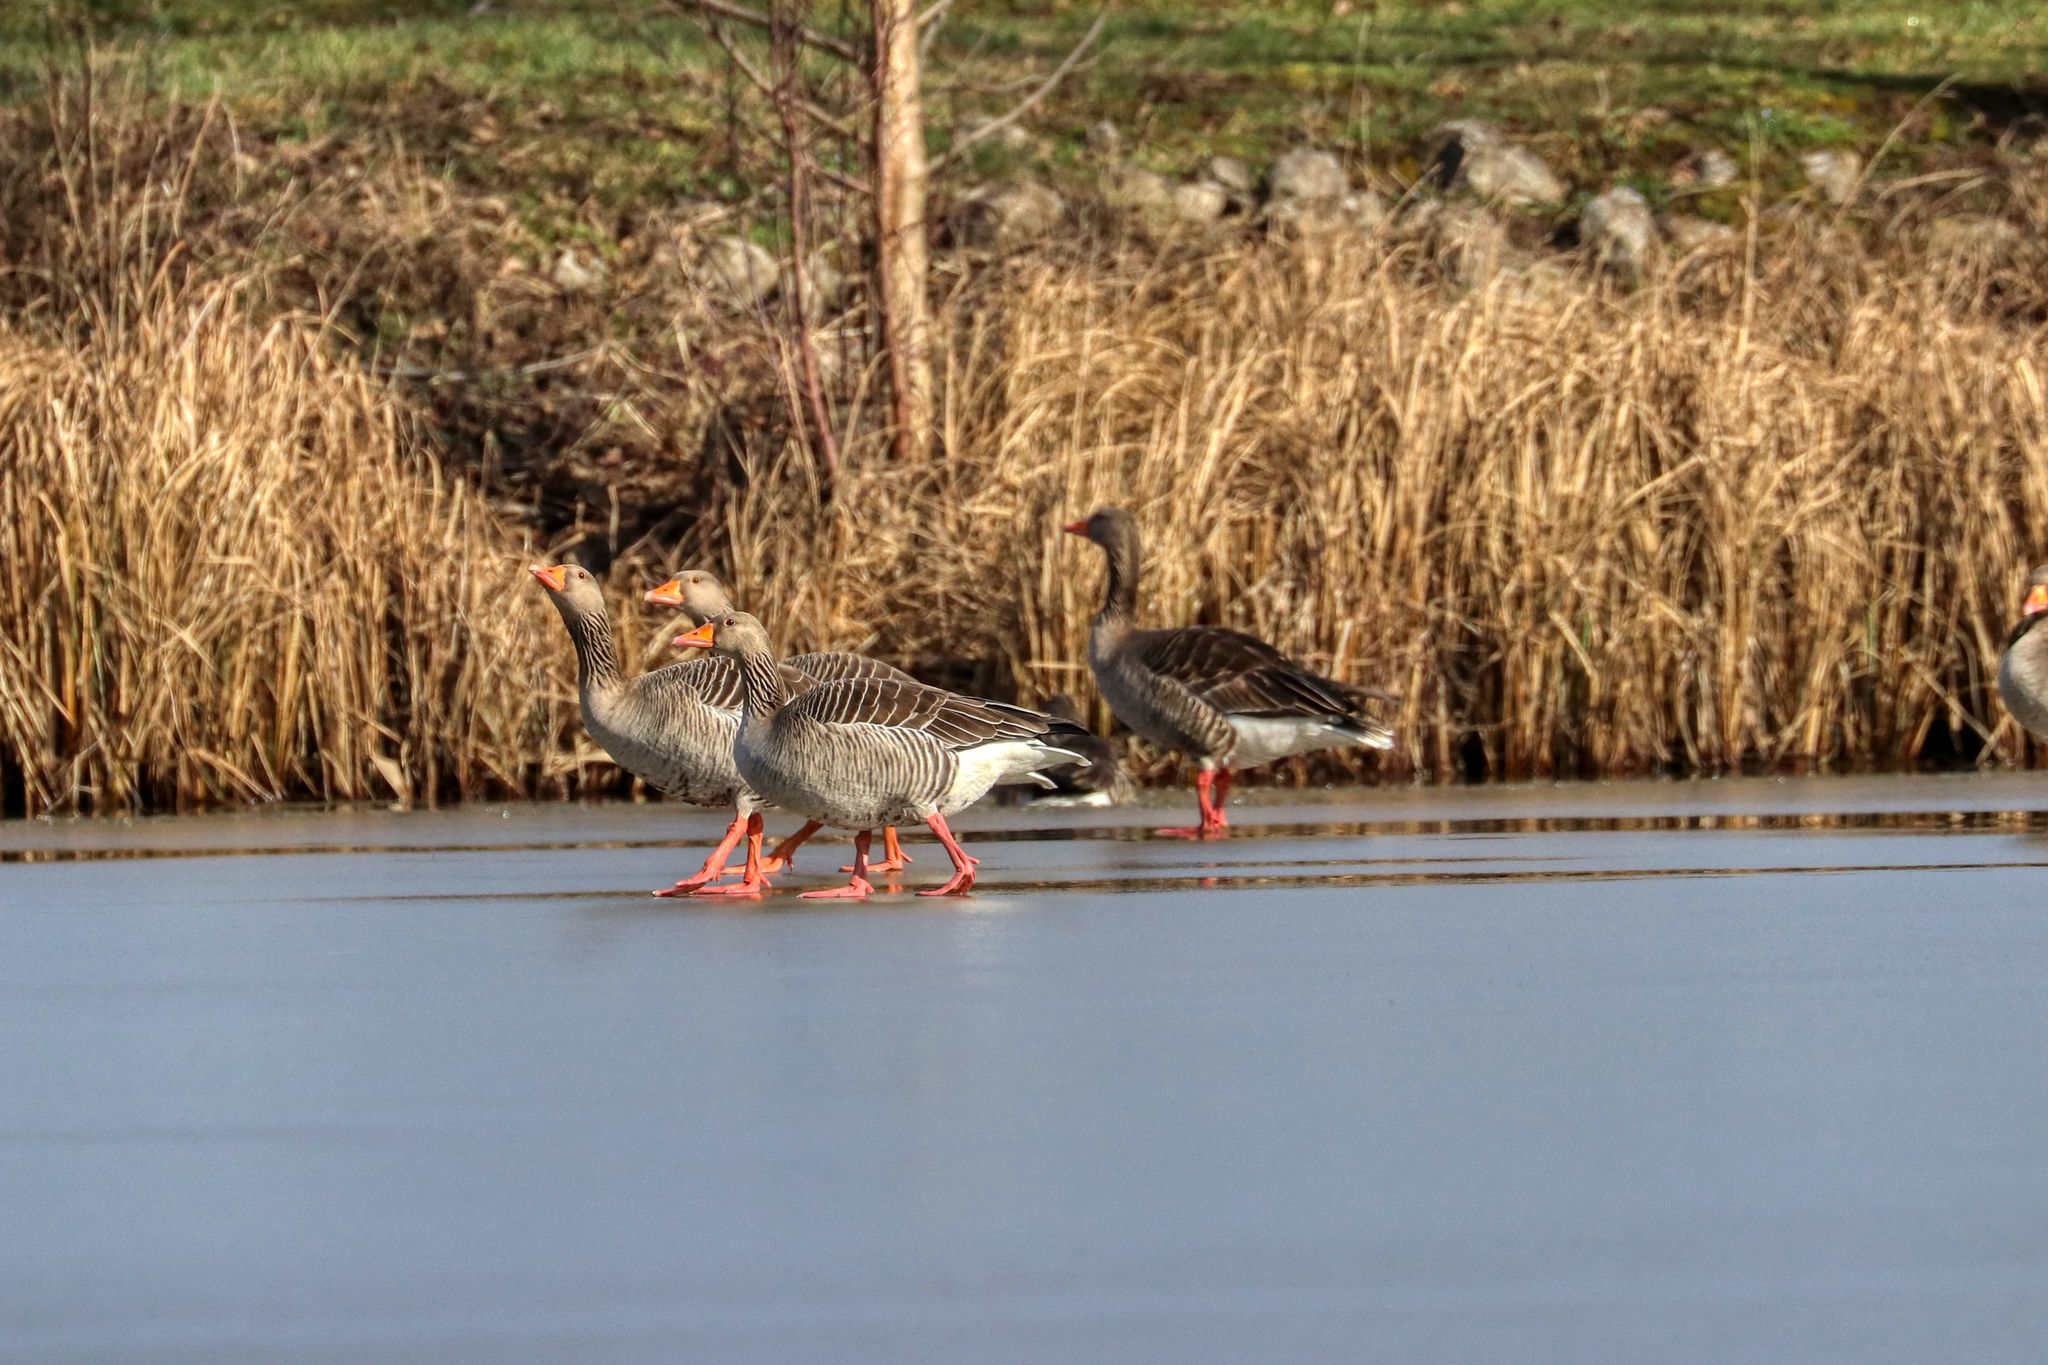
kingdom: Animalia
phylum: Chordata
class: Aves
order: Anseriformes
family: Anatidae
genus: Anser
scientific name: Anser anser
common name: Greylag goose
